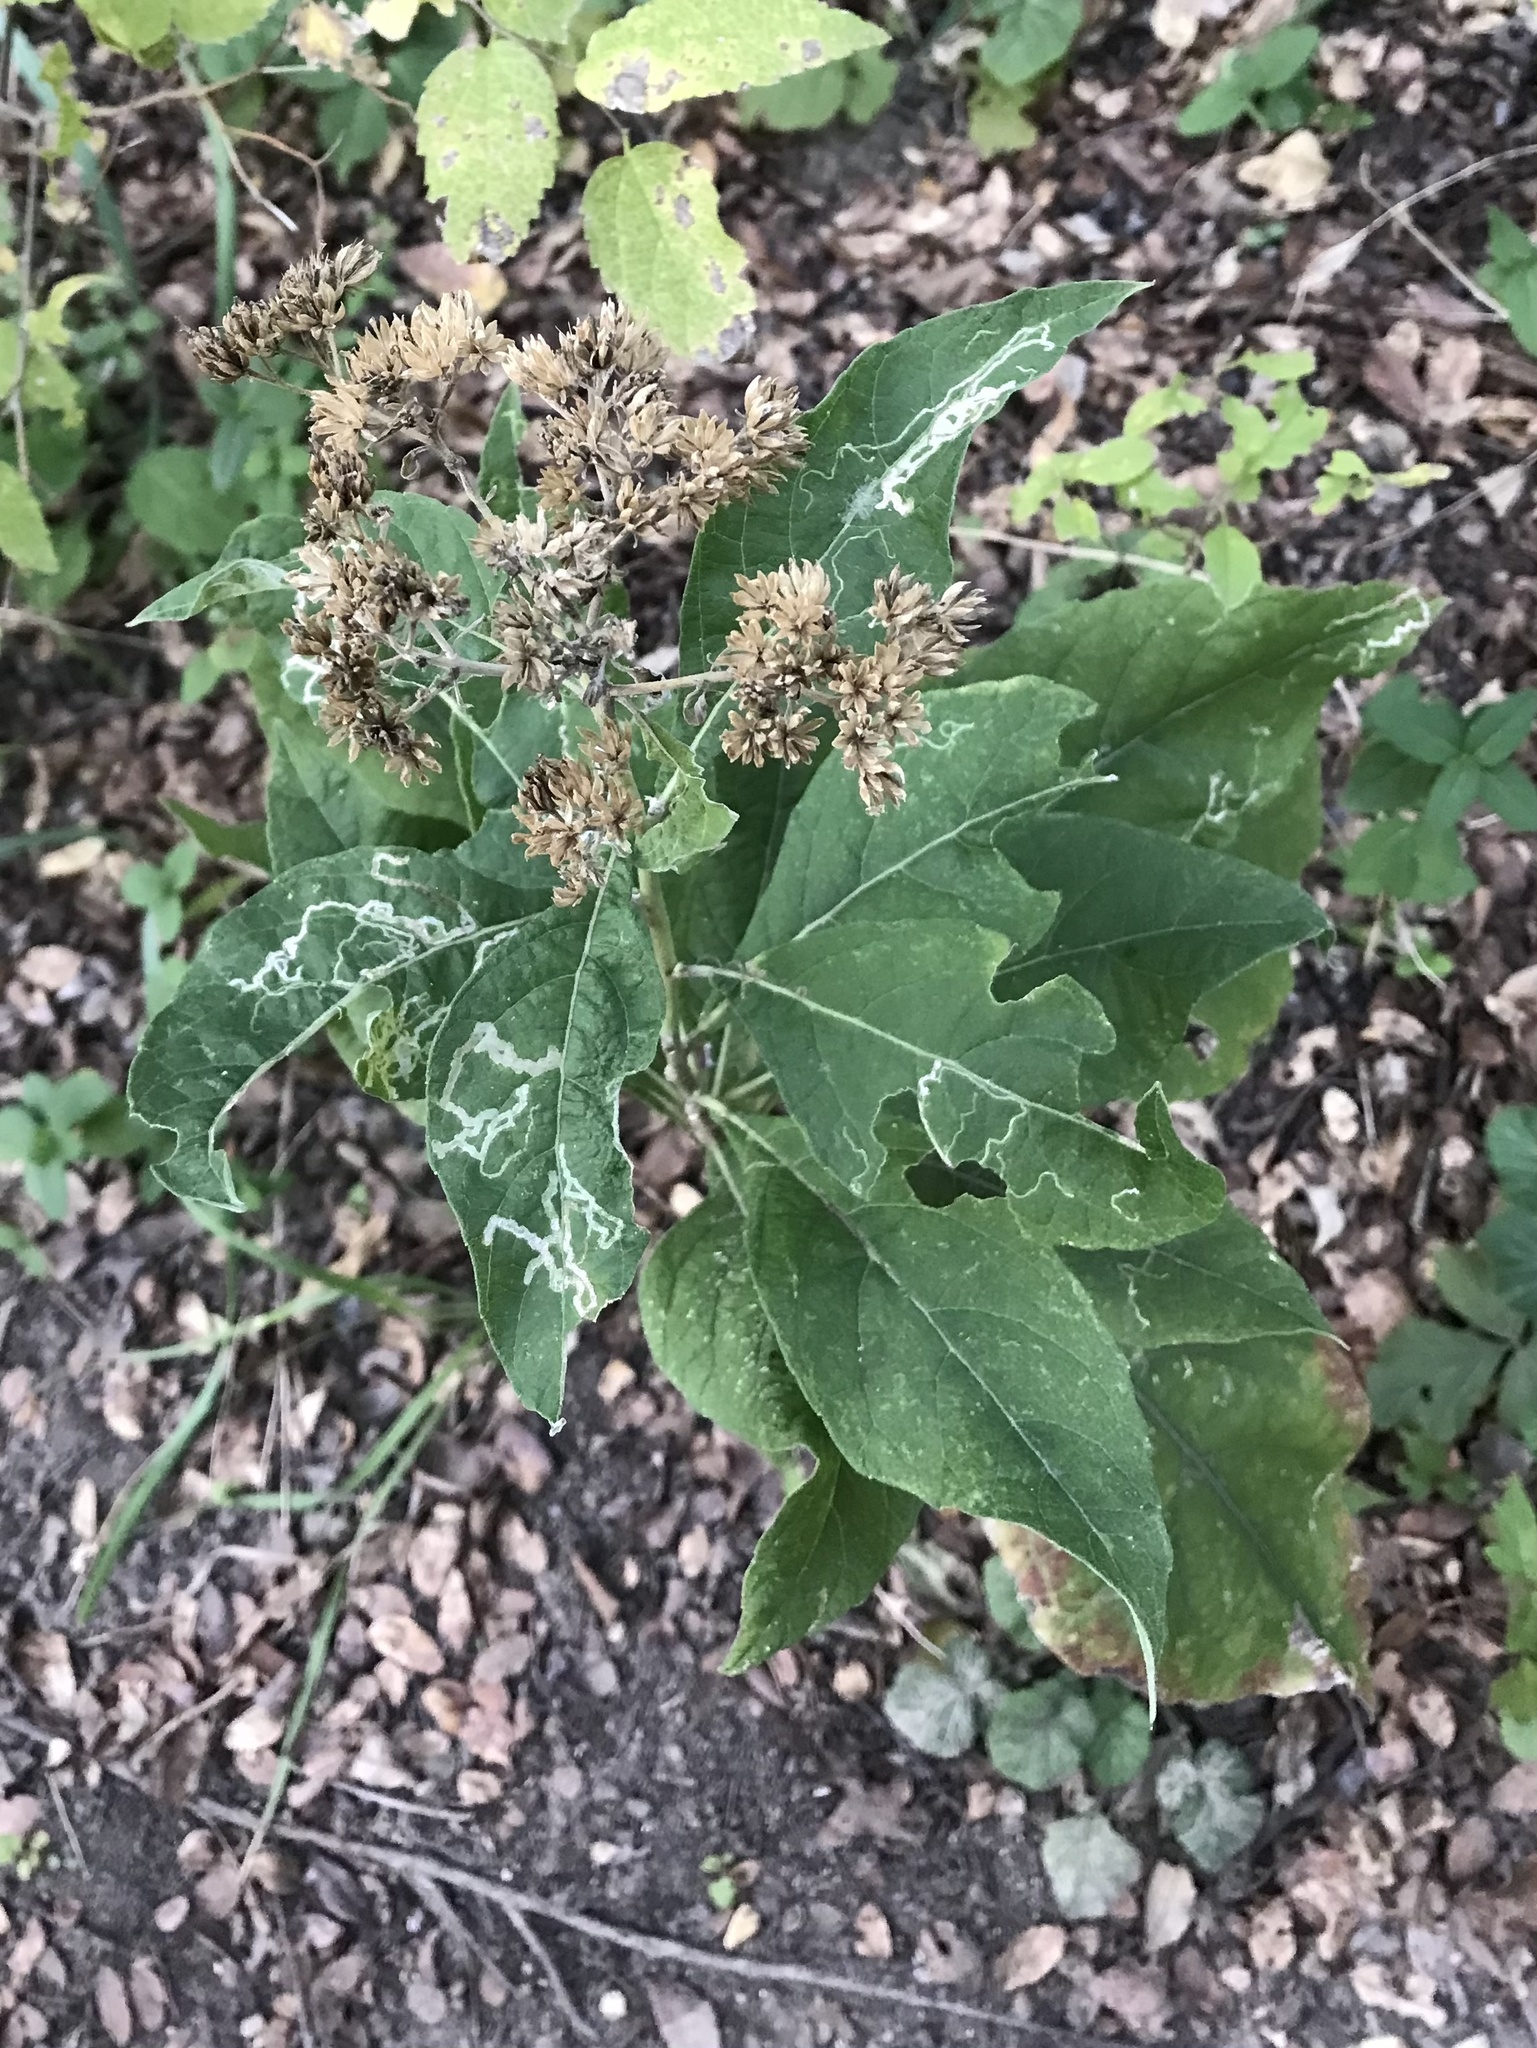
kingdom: Plantae
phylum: Tracheophyta
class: Magnoliopsida
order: Asterales
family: Asteraceae
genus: Verbesina
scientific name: Verbesina virginica
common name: Frostweed
